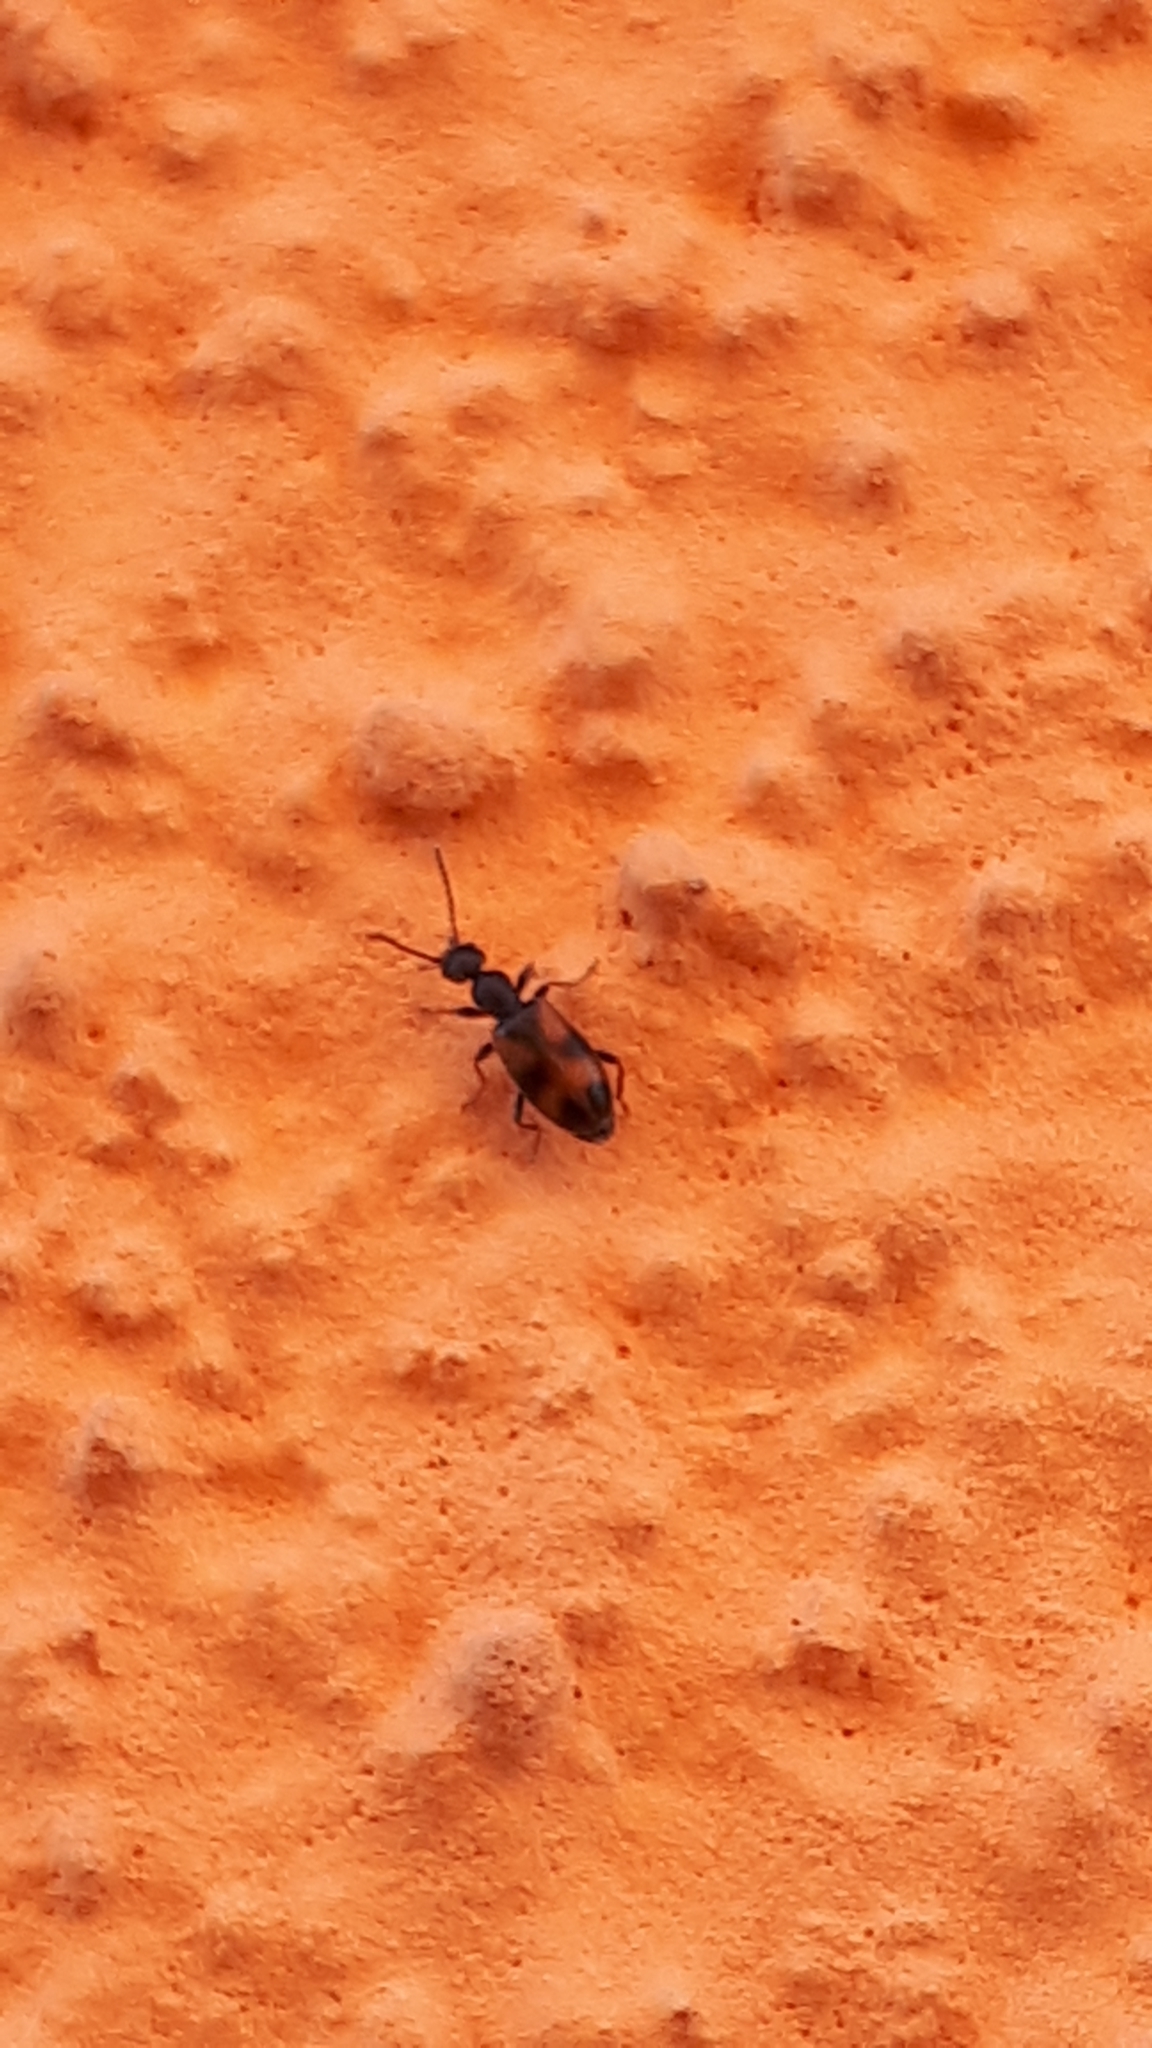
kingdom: Animalia
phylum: Arthropoda
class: Insecta
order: Coleoptera
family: Anthicidae
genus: Anthicus
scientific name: Anthicus antherinus
